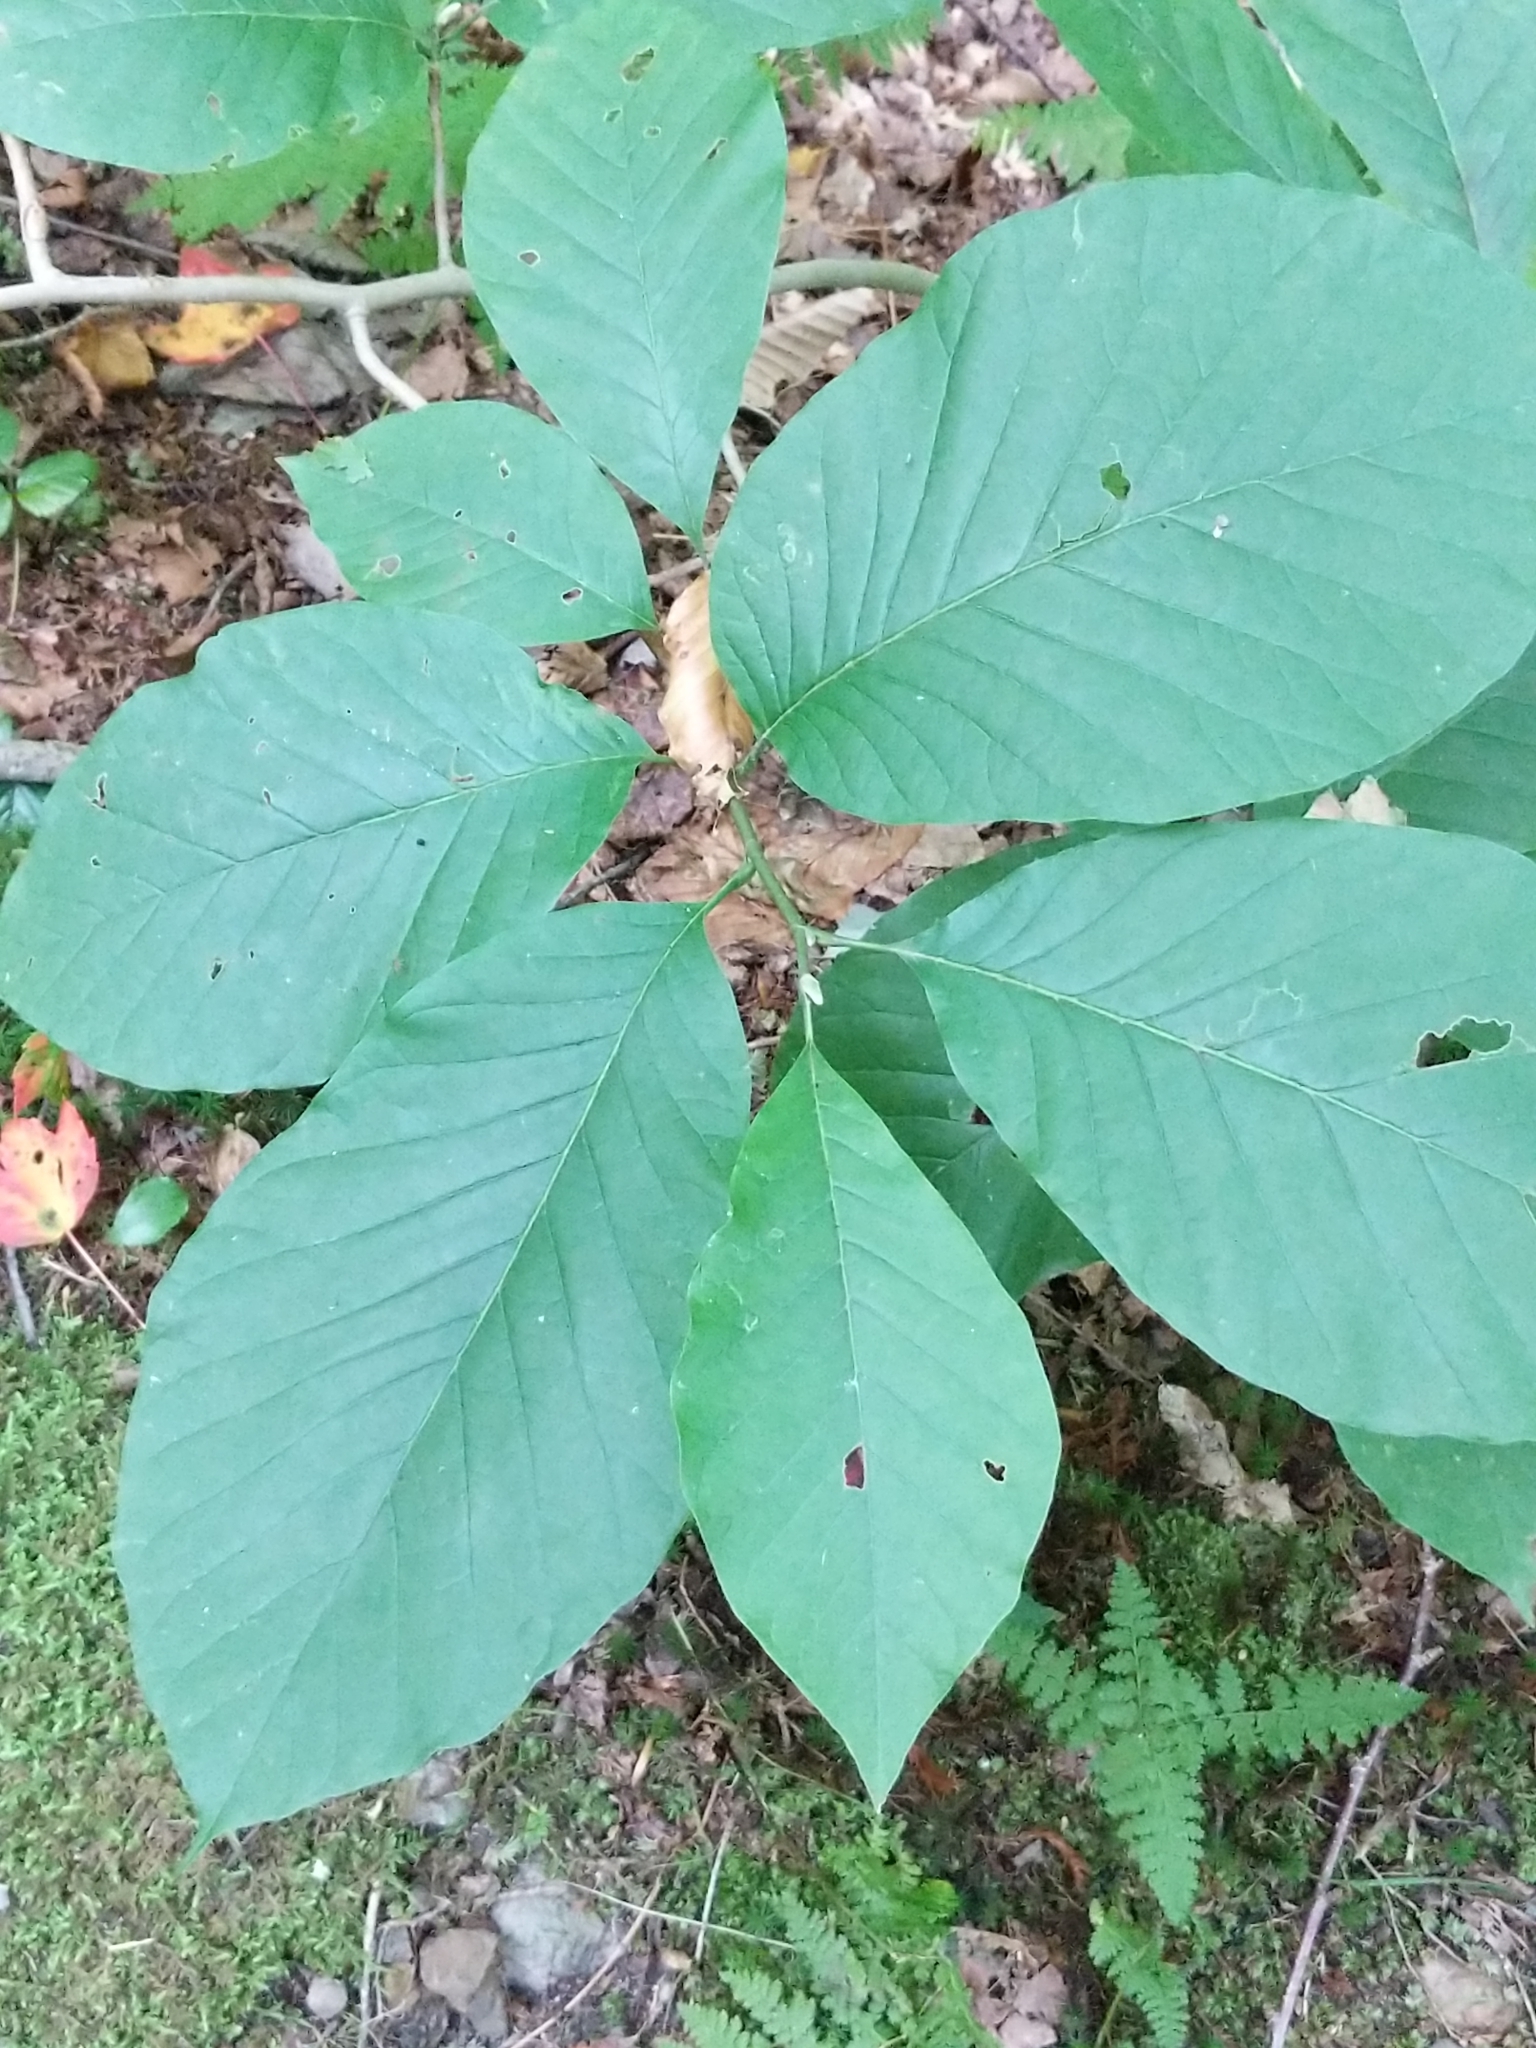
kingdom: Plantae
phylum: Tracheophyta
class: Magnoliopsida
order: Magnoliales
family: Magnoliaceae
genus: Magnolia
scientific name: Magnolia acuminata
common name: Cucumber magnolia
